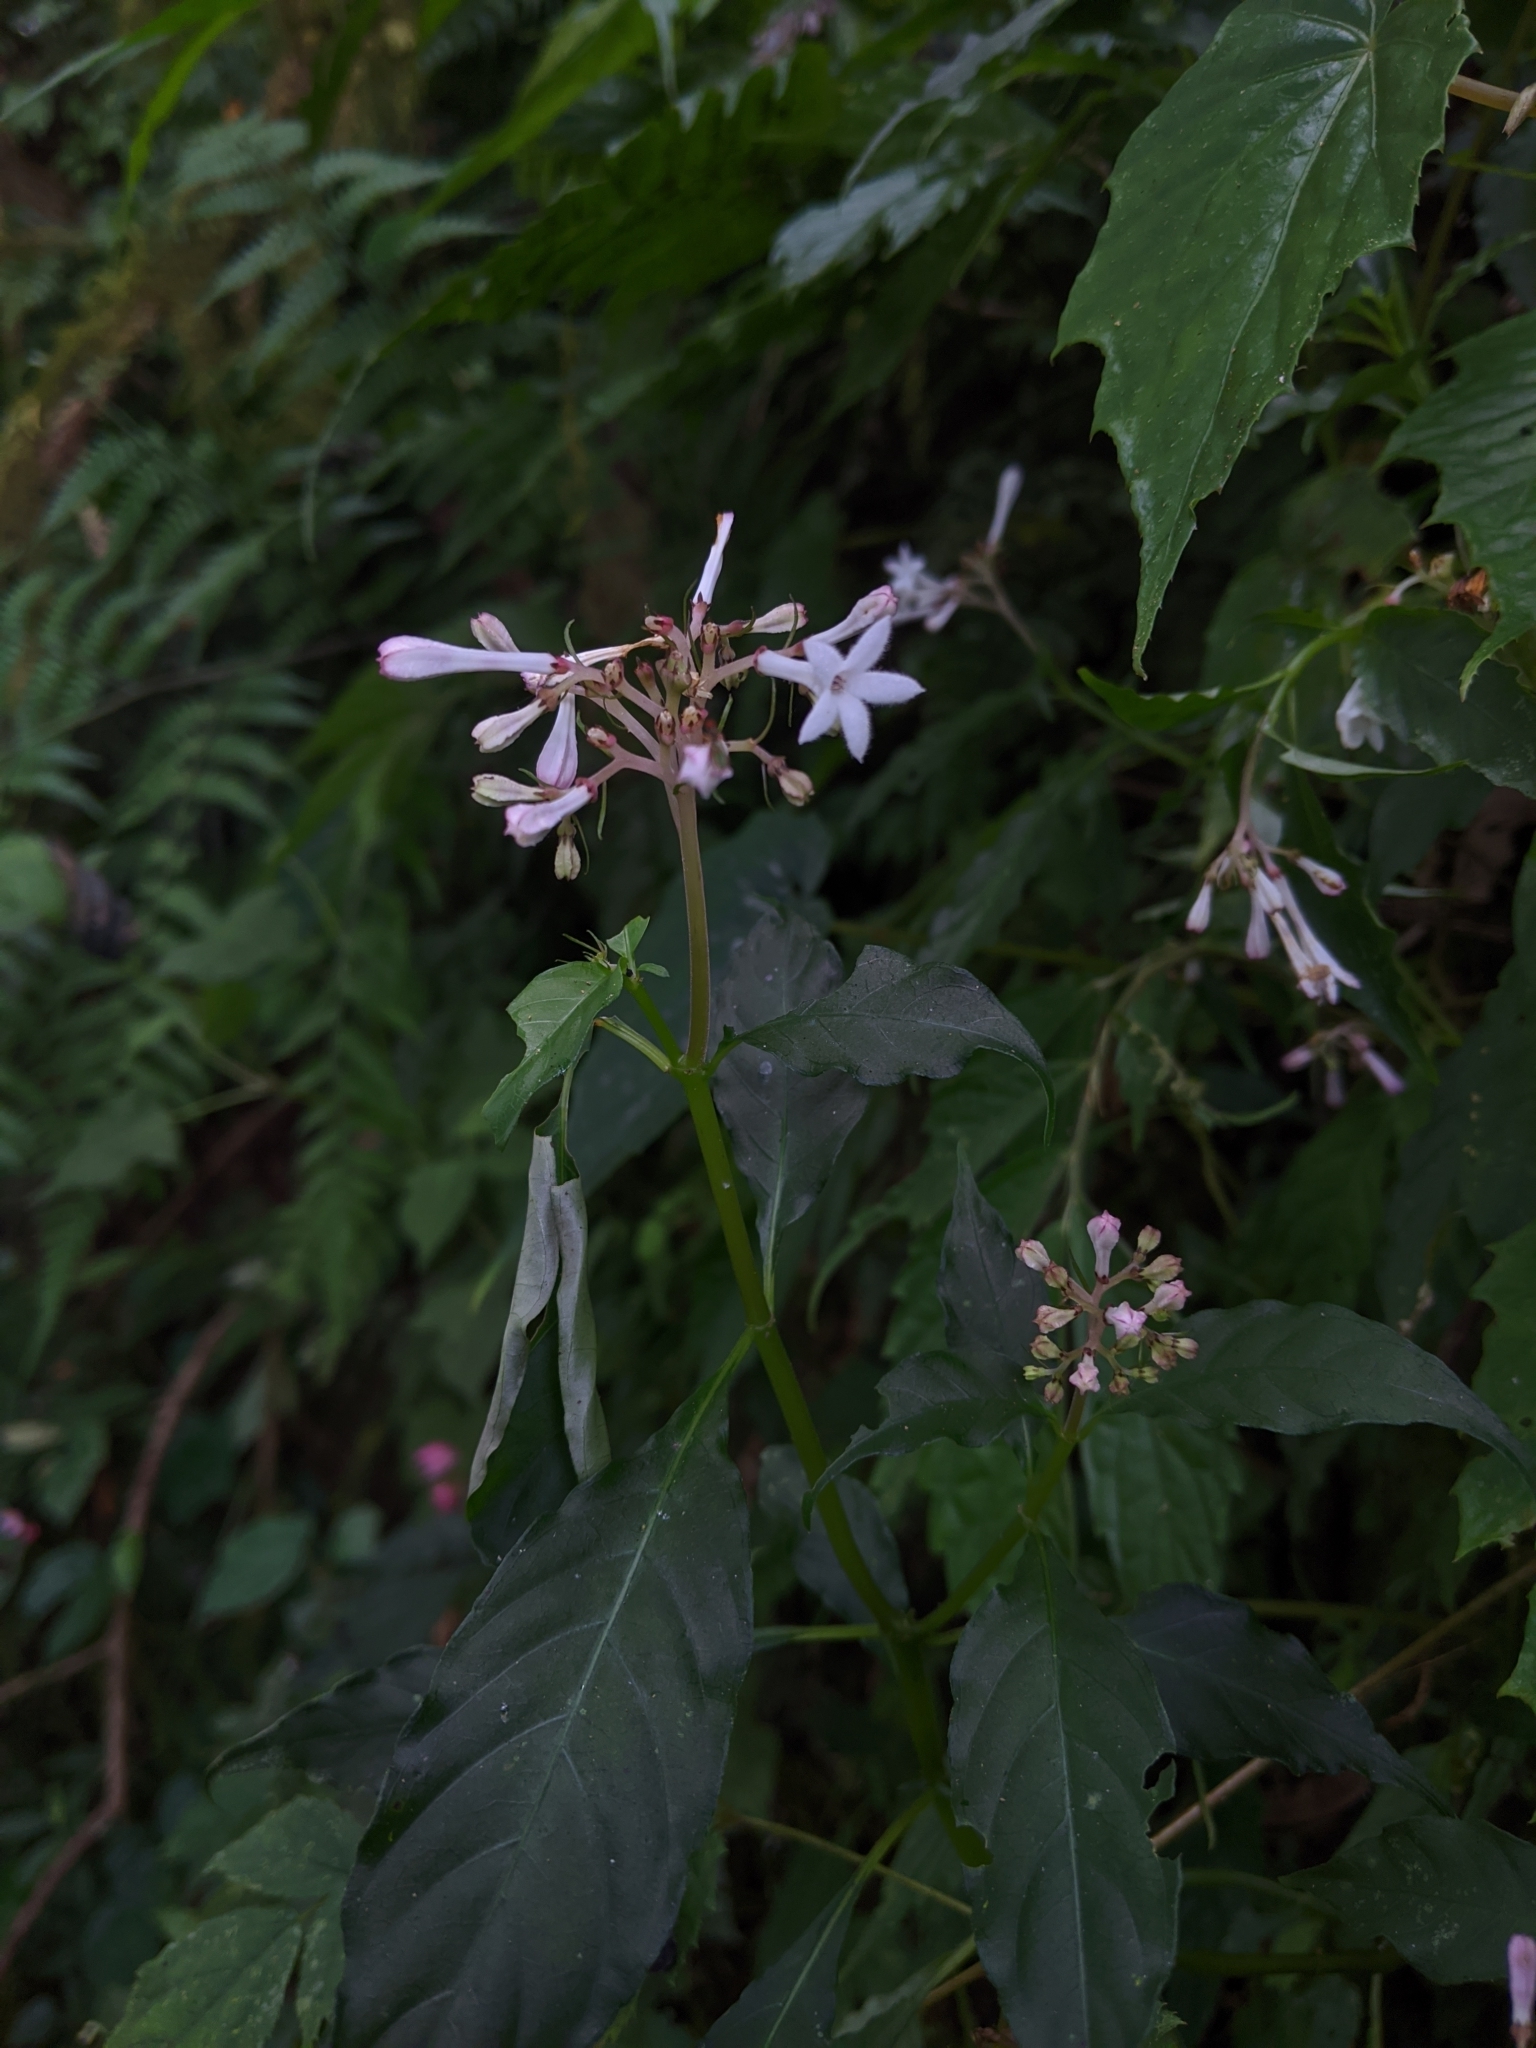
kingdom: Plantae
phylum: Tracheophyta
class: Magnoliopsida
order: Gentianales
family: Rubiaceae
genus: Ophiorrhiza
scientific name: Ophiorrhiza japonica
